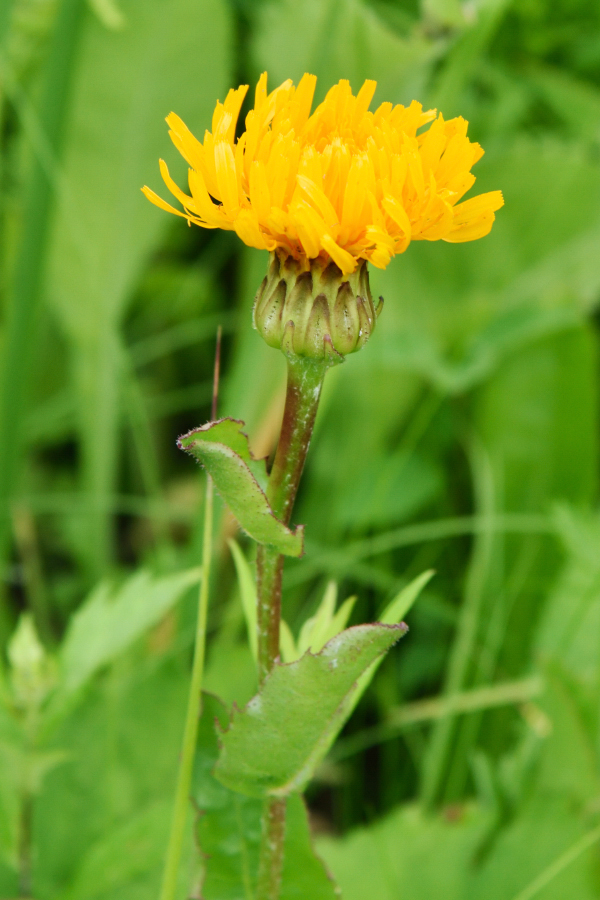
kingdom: Plantae
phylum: Tracheophyta
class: Magnoliopsida
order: Asterales
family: Asteraceae
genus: Trommsdorffia
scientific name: Trommsdorffia ciliata
